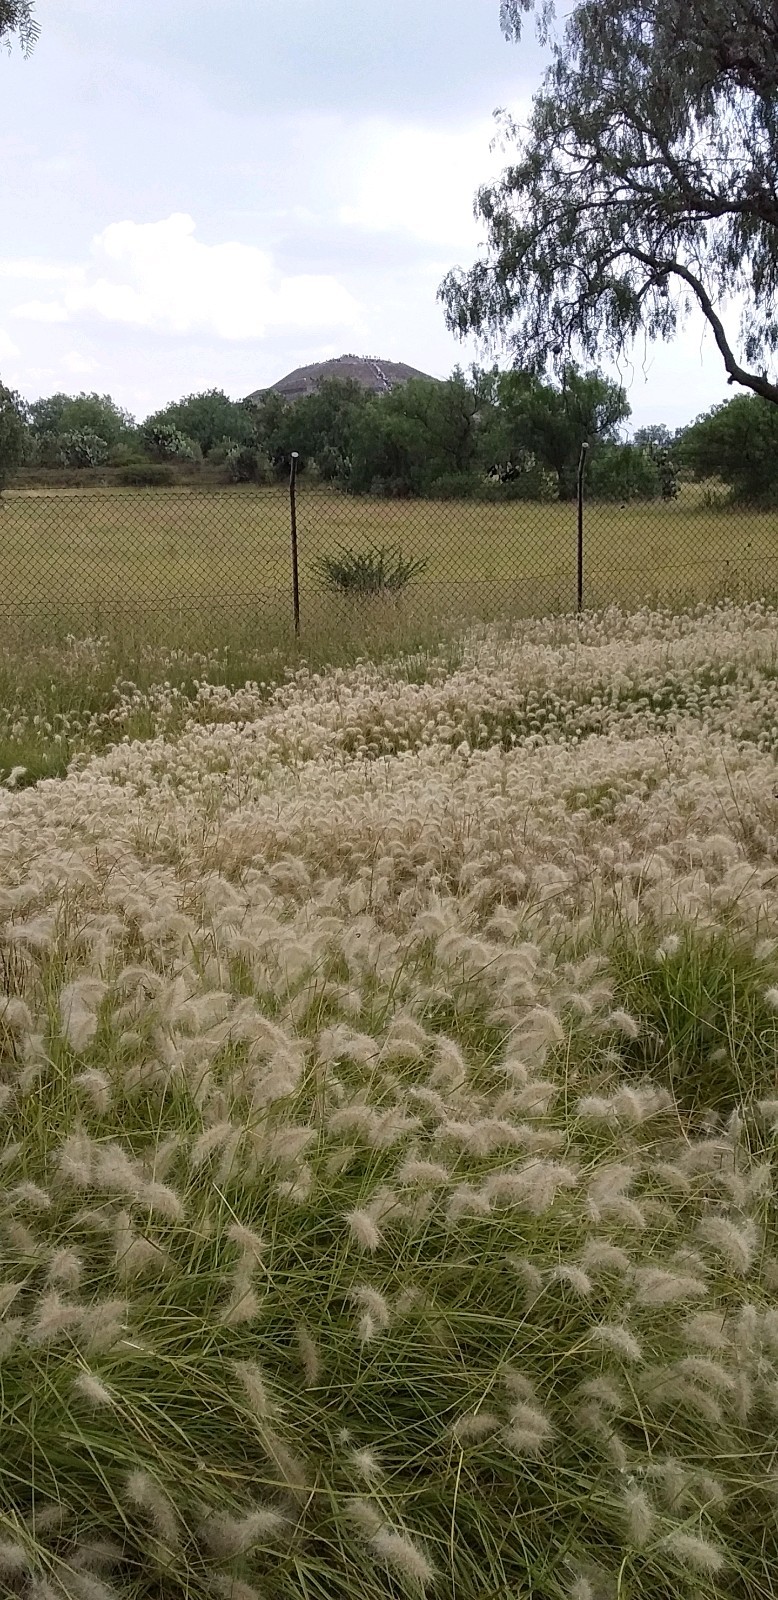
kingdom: Plantae
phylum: Tracheophyta
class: Liliopsida
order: Poales
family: Poaceae
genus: Cenchrus
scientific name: Cenchrus longisetus
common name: Feathertop
